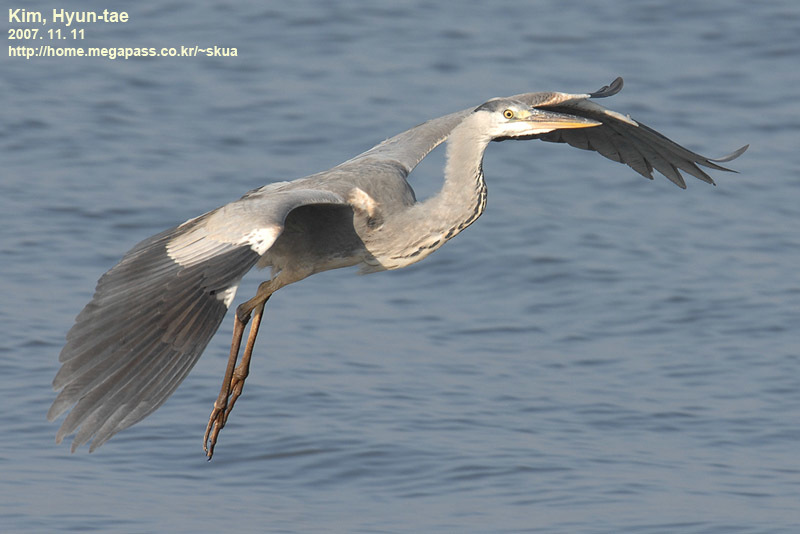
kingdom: Animalia
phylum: Chordata
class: Aves
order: Pelecaniformes
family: Ardeidae
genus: Ardea
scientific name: Ardea cinerea
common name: Grey heron
